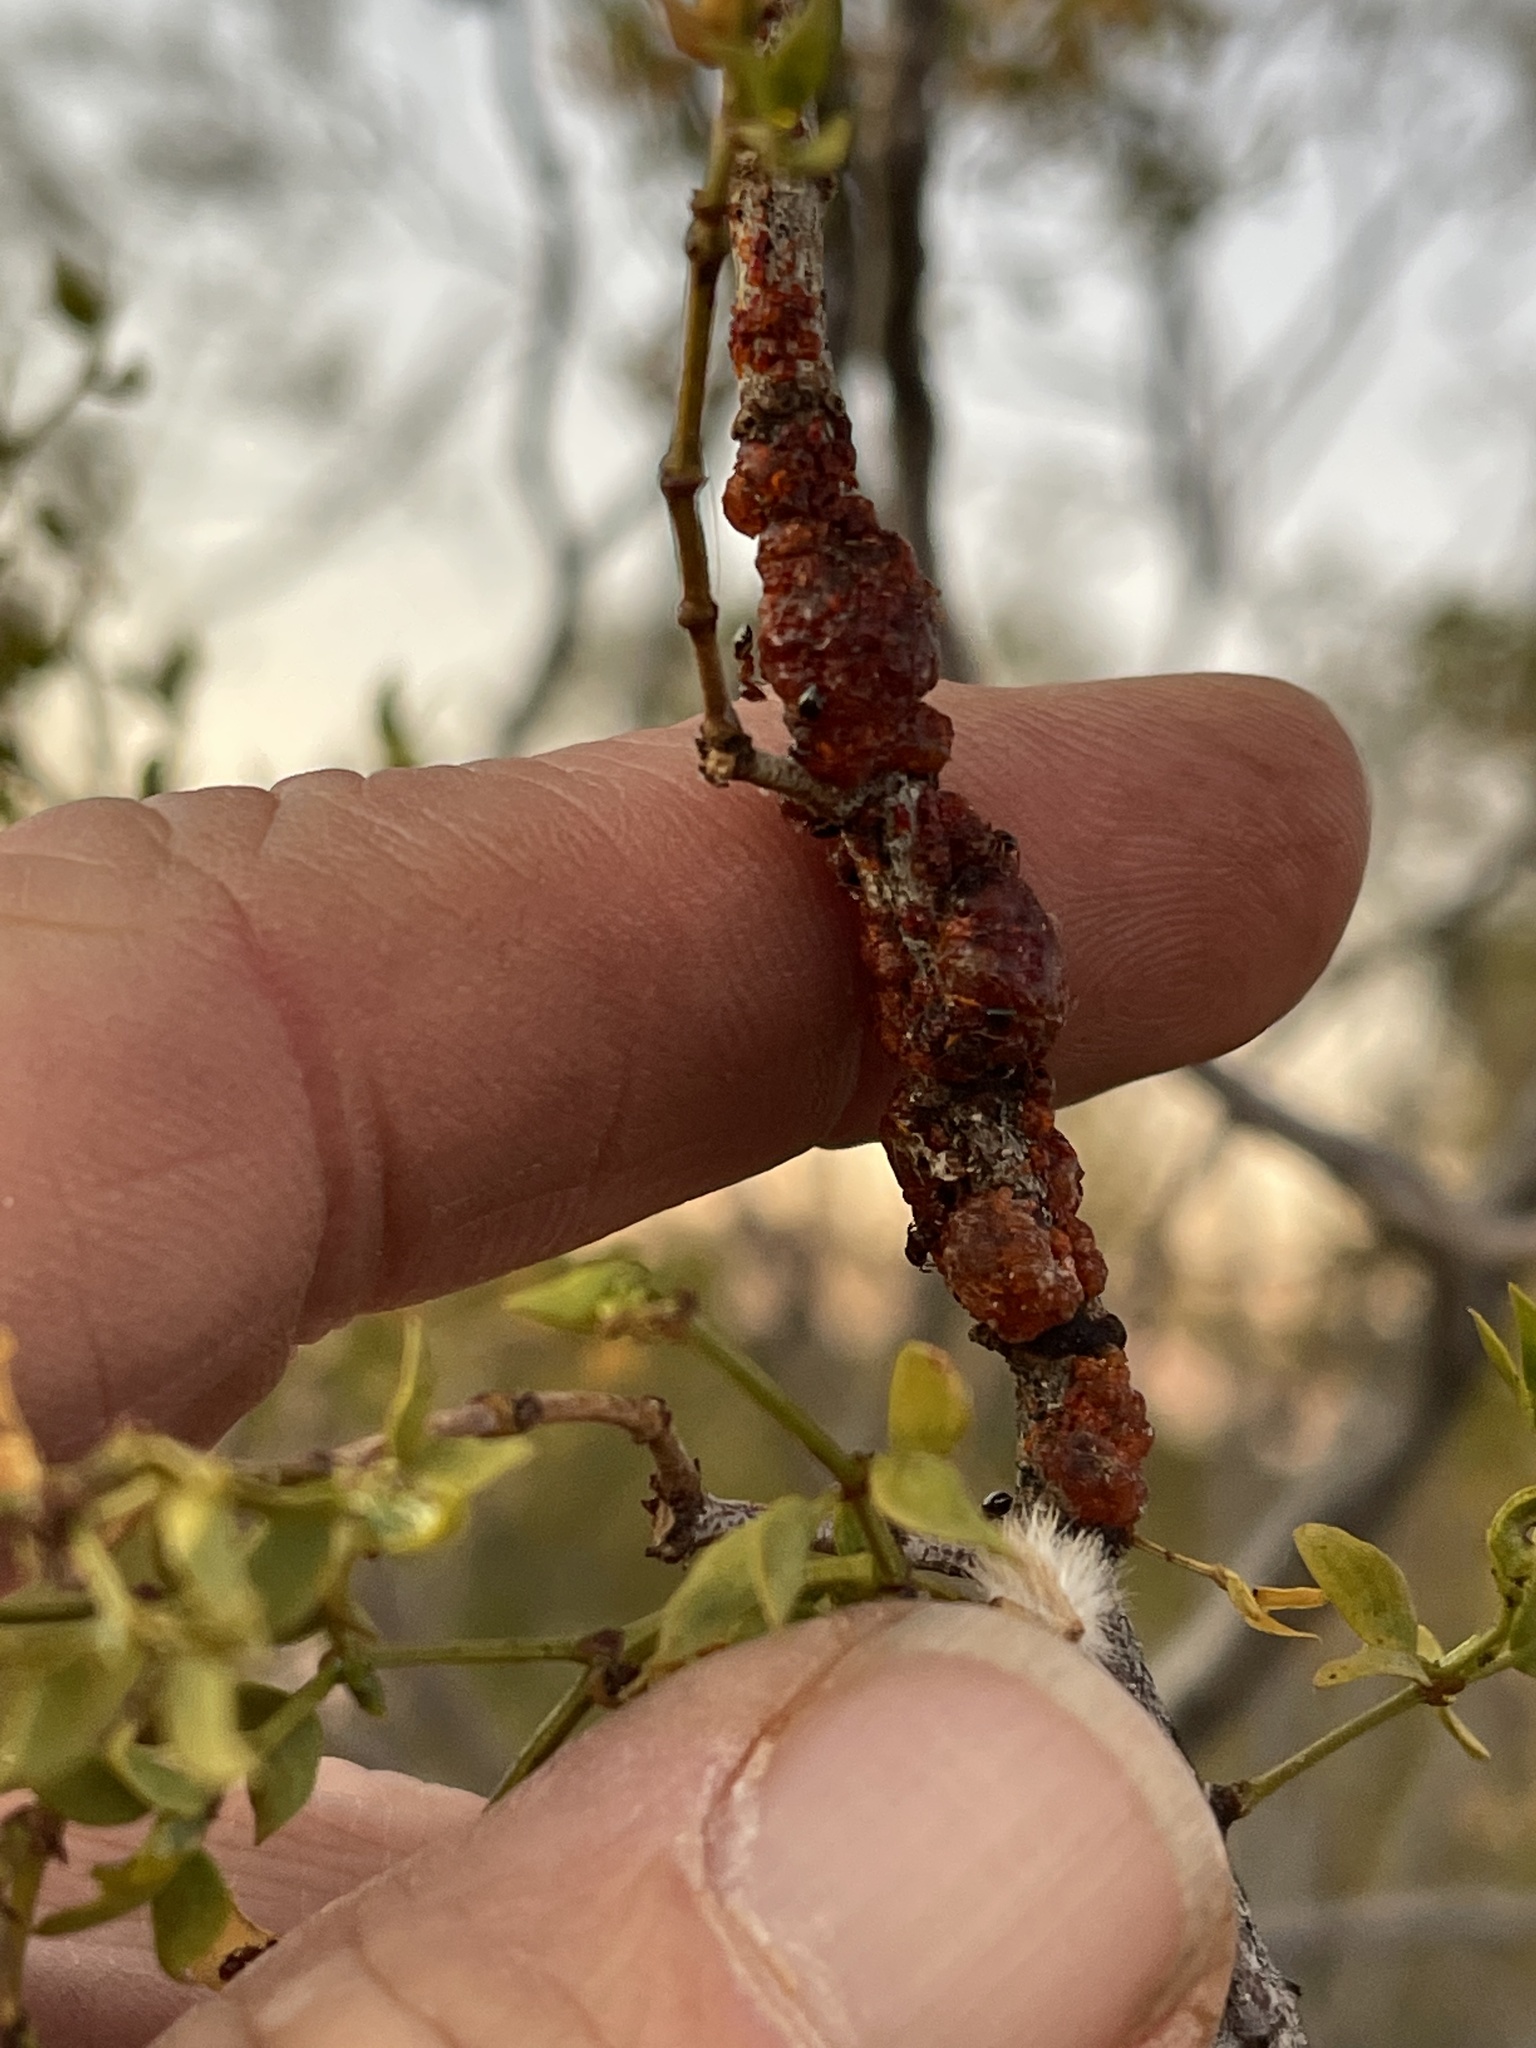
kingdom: Animalia
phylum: Arthropoda
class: Insecta
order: Hemiptera
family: Kerriidae
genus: Tachardiella
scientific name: Tachardiella larreae
